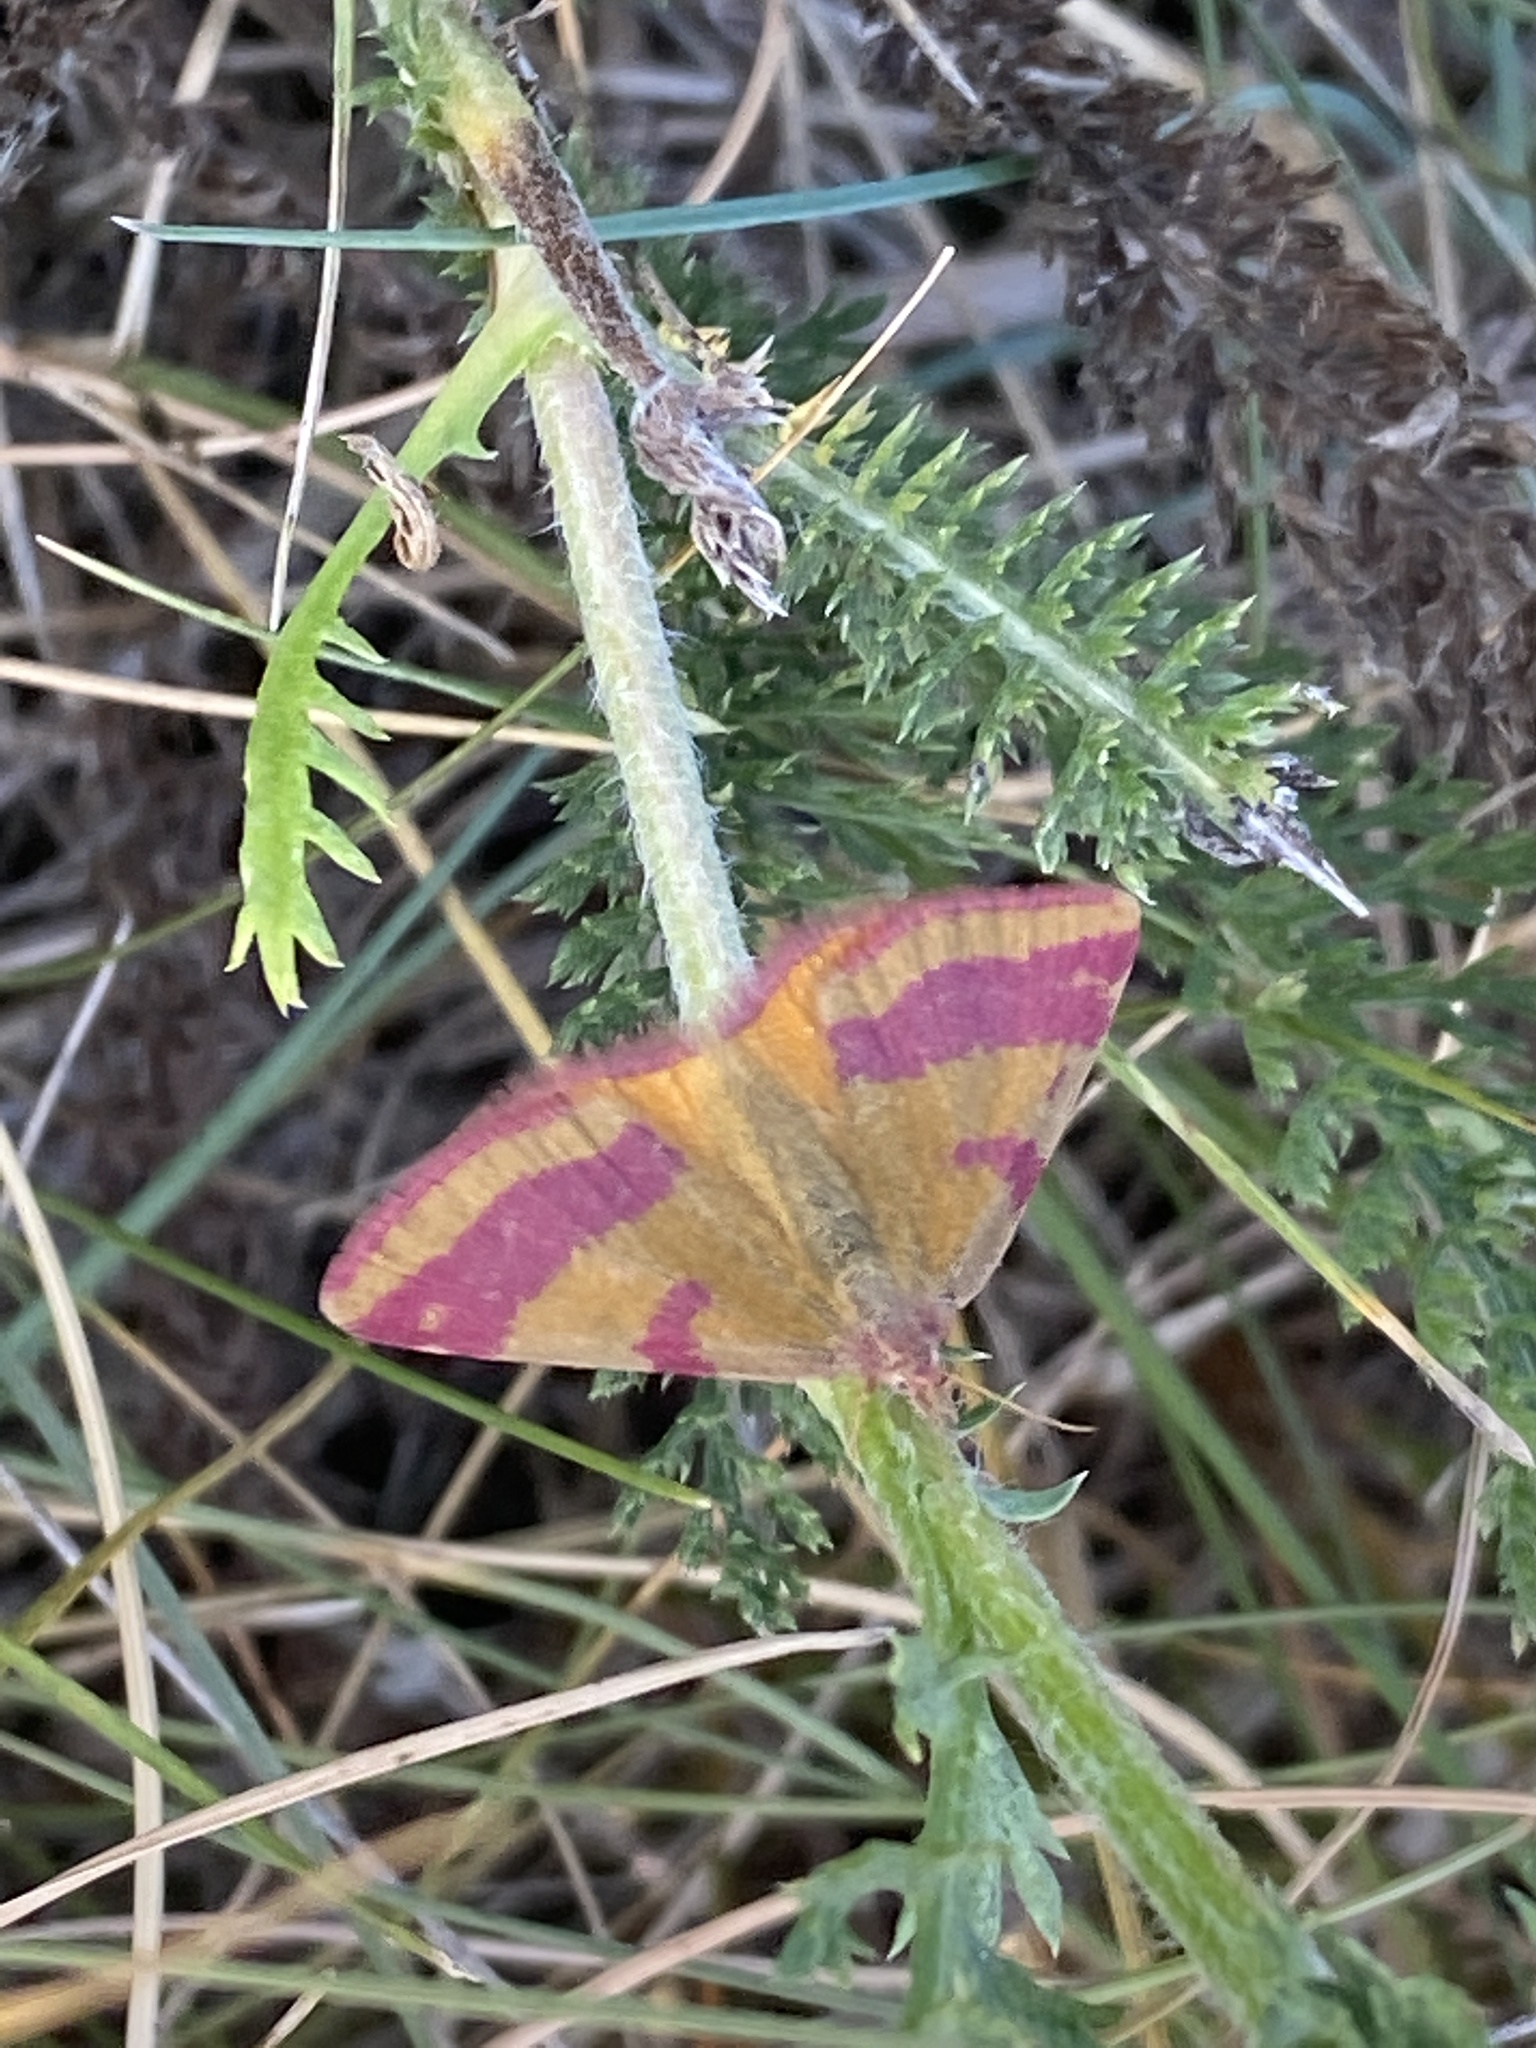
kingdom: Animalia
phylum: Arthropoda
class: Insecta
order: Lepidoptera
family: Geometridae
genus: Lythria
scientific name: Lythria cruentaria
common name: Purple-barred yellow
